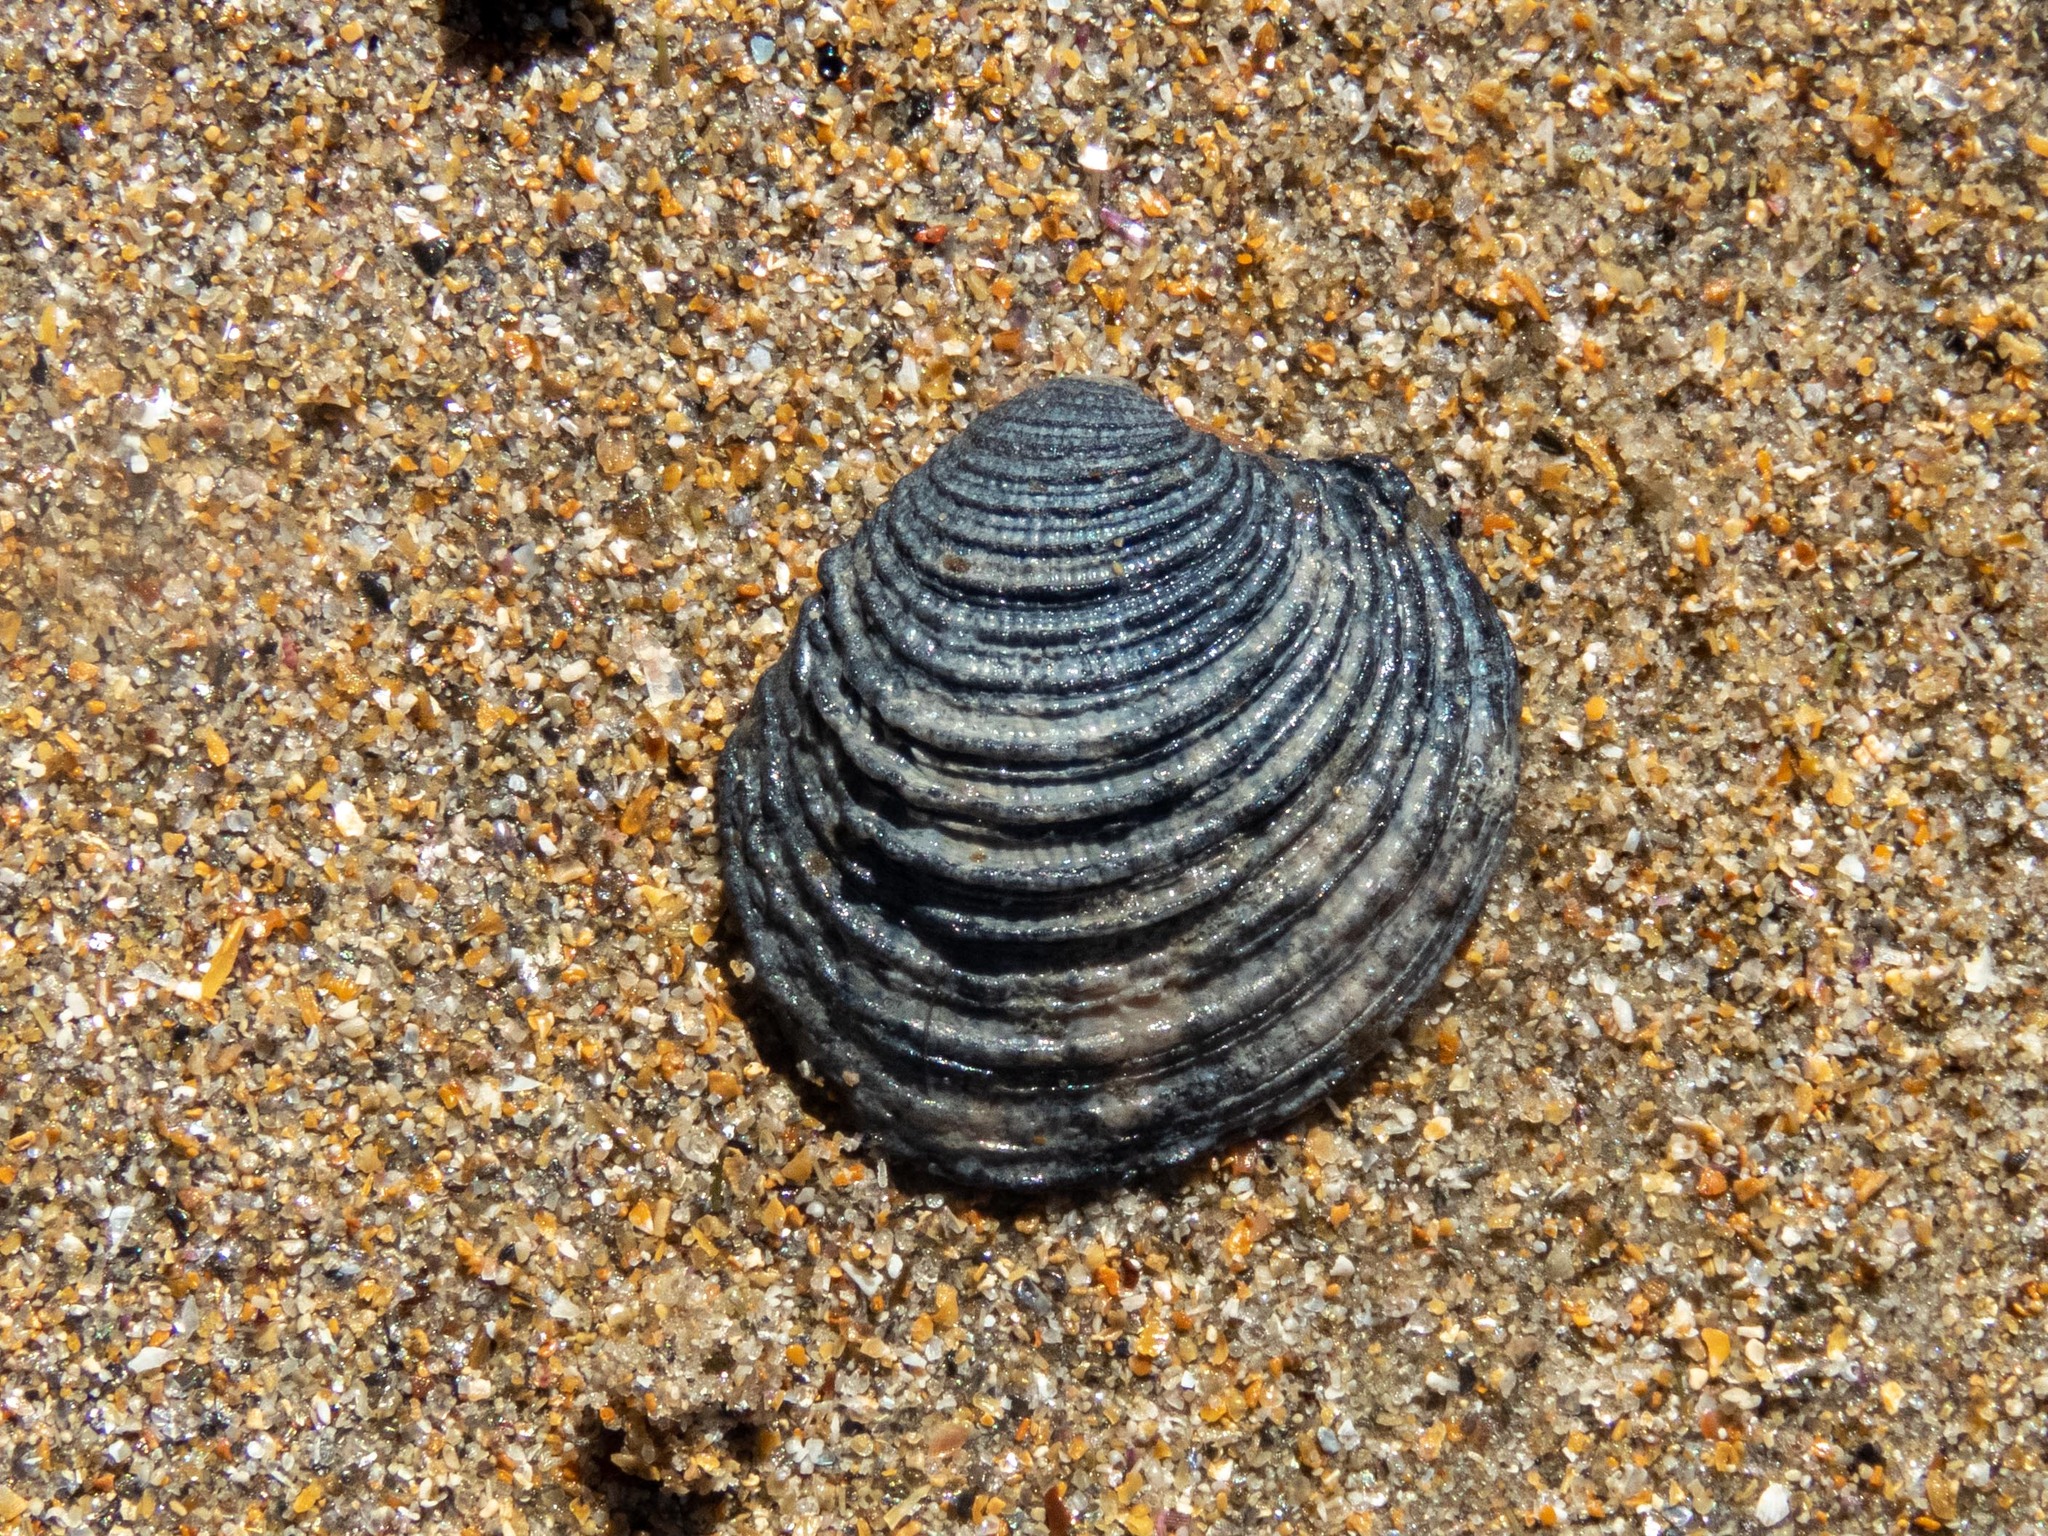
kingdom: Animalia
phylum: Mollusca
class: Bivalvia
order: Venerida
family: Veneridae
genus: Venus
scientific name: Venus verrucosa
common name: Warty venus
